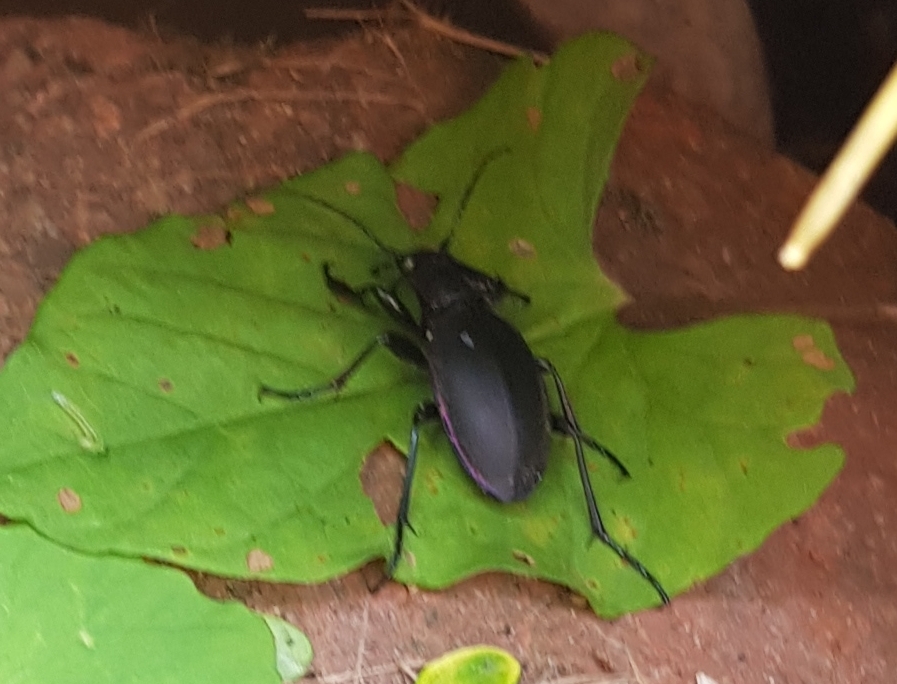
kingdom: Animalia
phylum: Arthropoda
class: Insecta
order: Coleoptera
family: Carabidae
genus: Carabus
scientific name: Carabus violaceus
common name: Violet ground beetle
